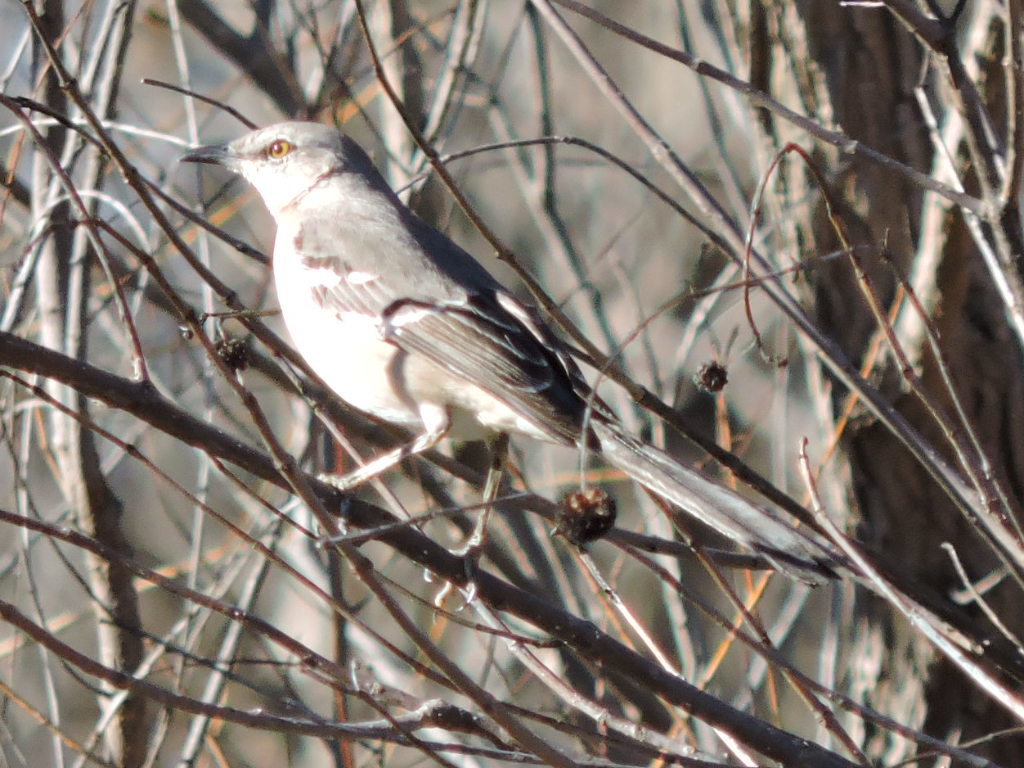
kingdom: Animalia
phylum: Chordata
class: Aves
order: Passeriformes
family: Mimidae
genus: Mimus
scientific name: Mimus polyglottos
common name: Northern mockingbird
